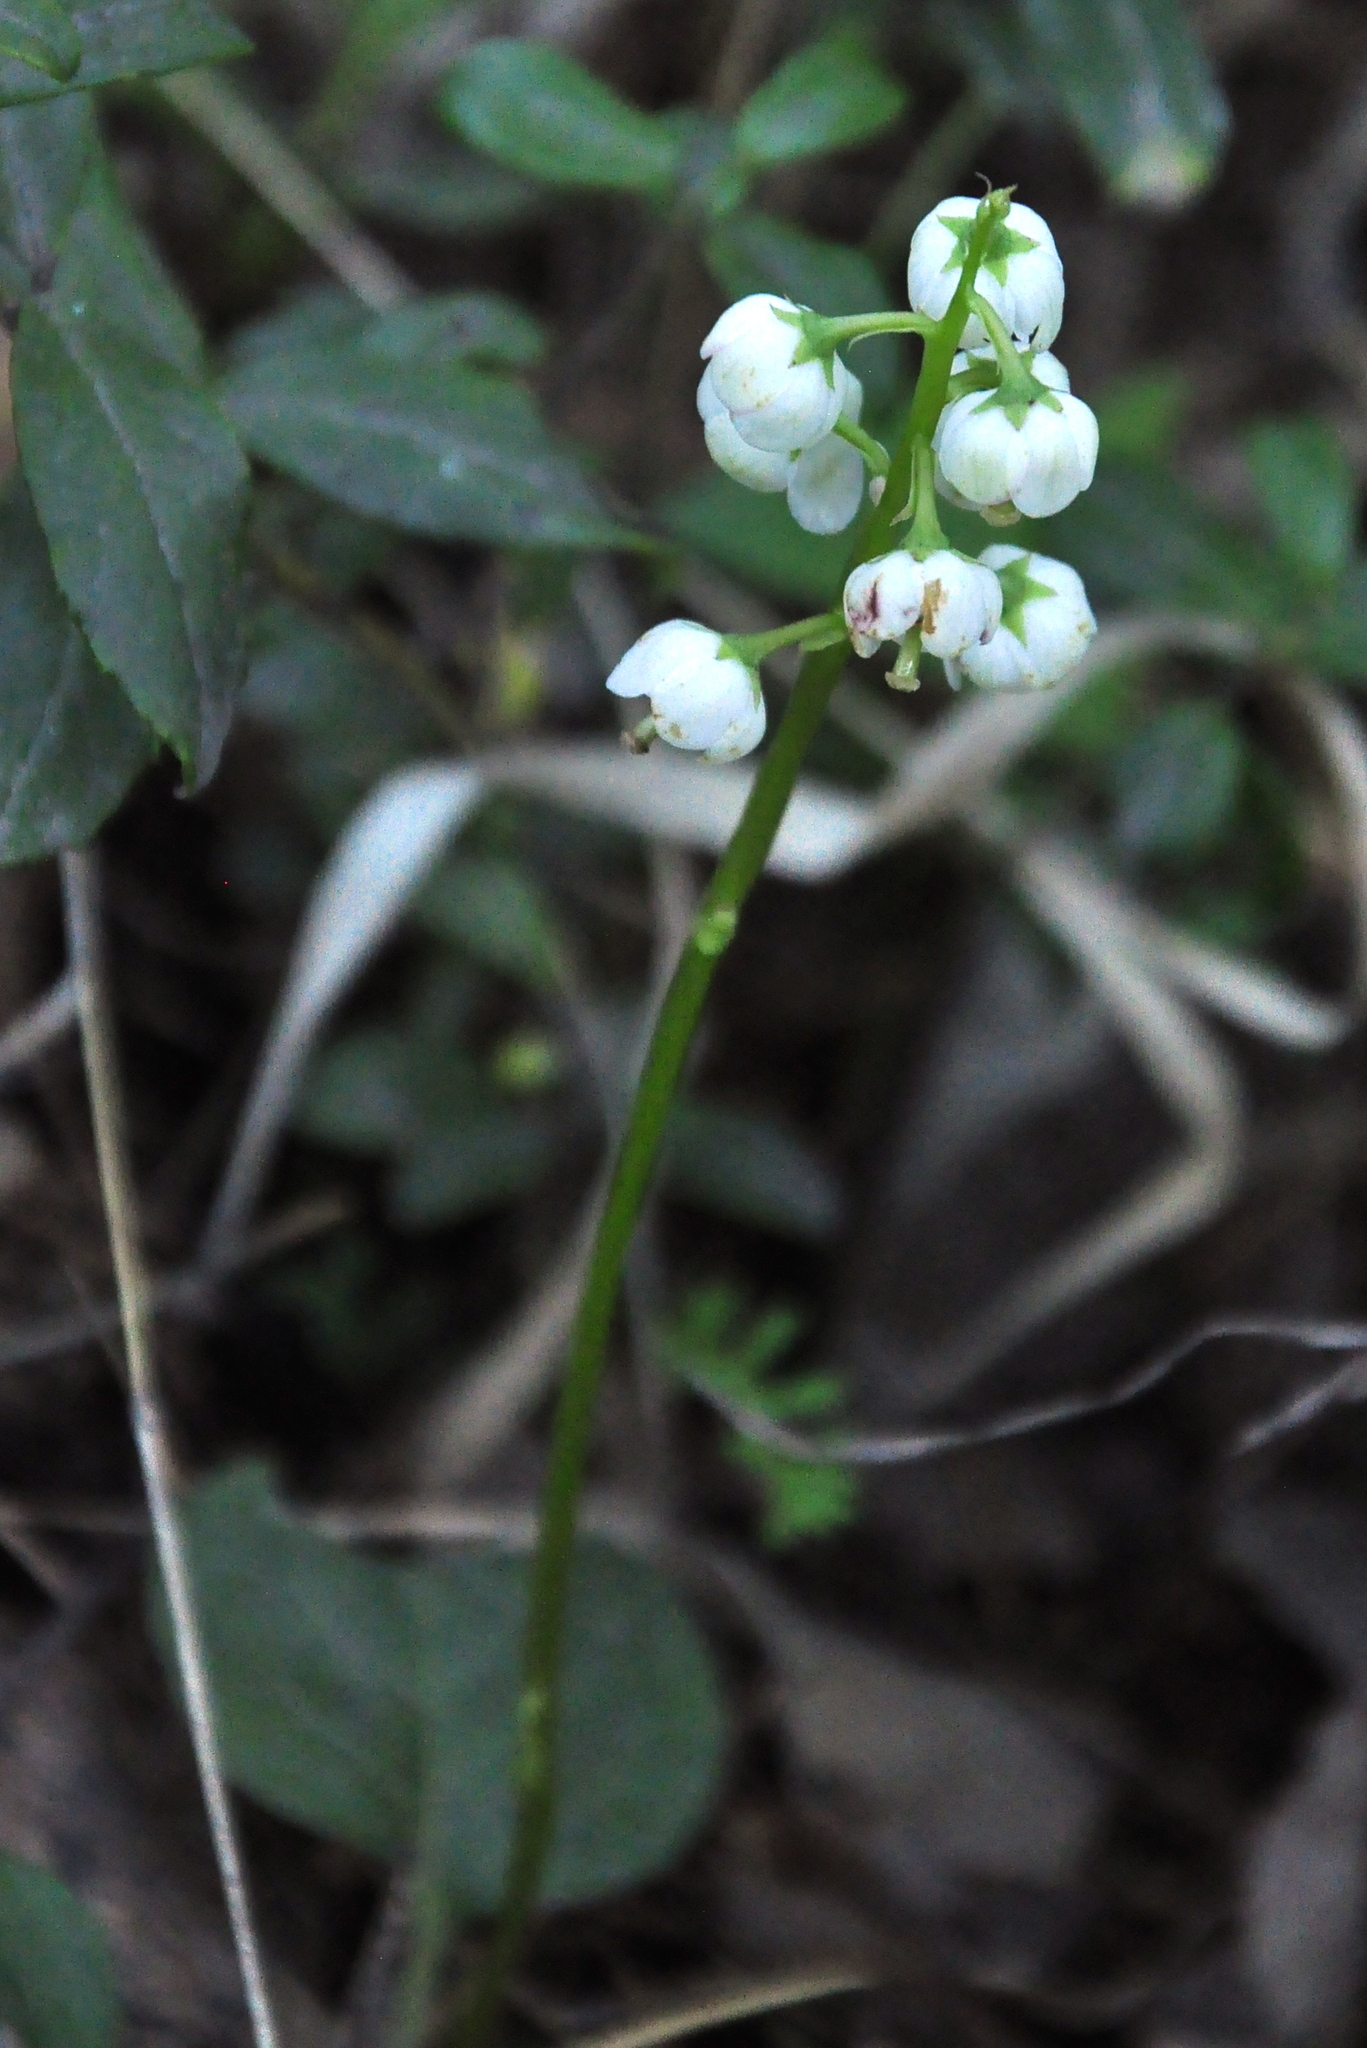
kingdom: Plantae
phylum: Tracheophyta
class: Magnoliopsida
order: Ericales
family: Ericaceae
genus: Pyrola
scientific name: Pyrola media
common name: Intermediate wintergreen
